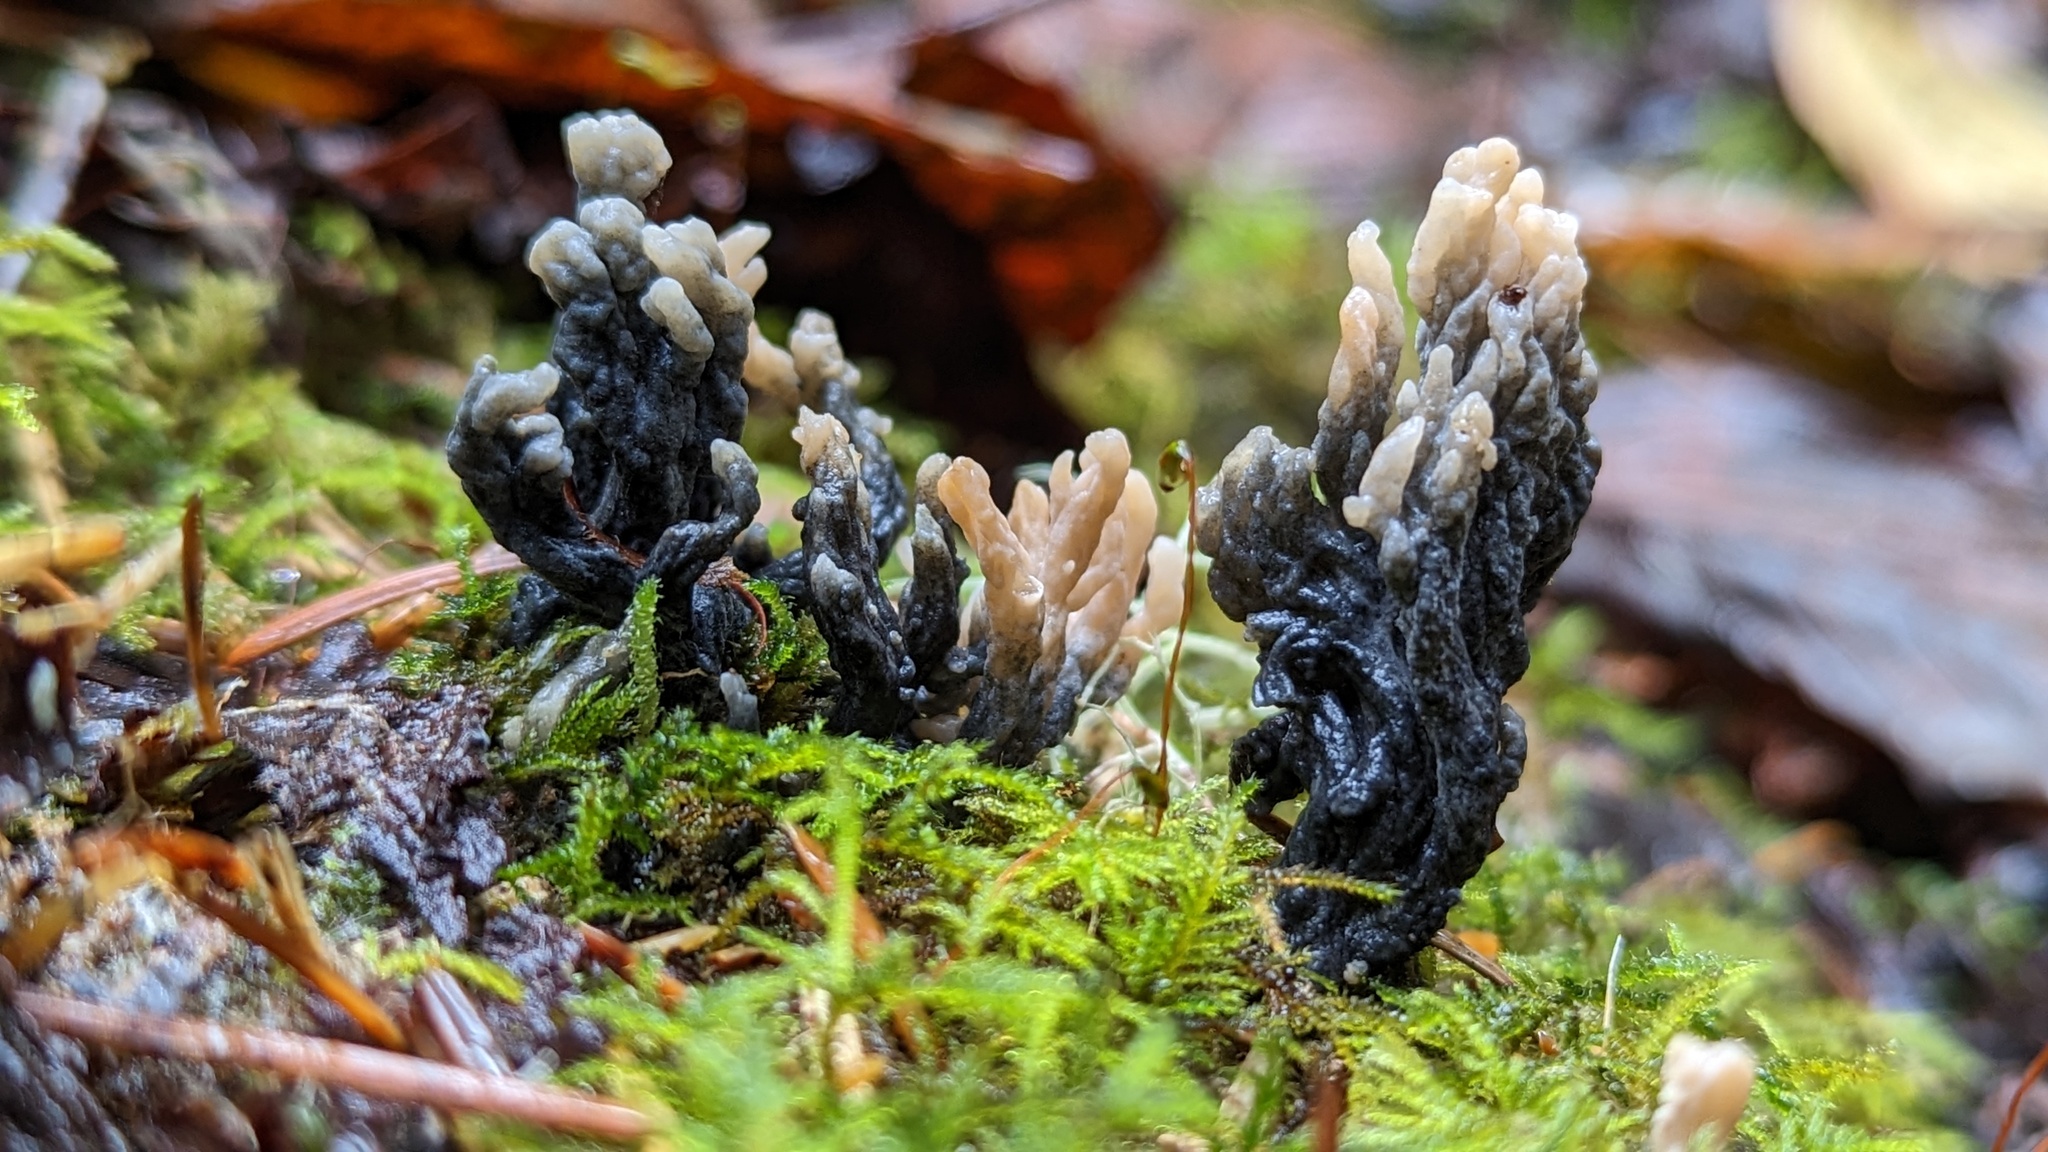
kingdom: Fungi
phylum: Ascomycota
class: Sordariomycetes
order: Sordariales
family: Helminthosphaeriaceae
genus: Helminthosphaeria
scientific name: Helminthosphaeria clavariarum
